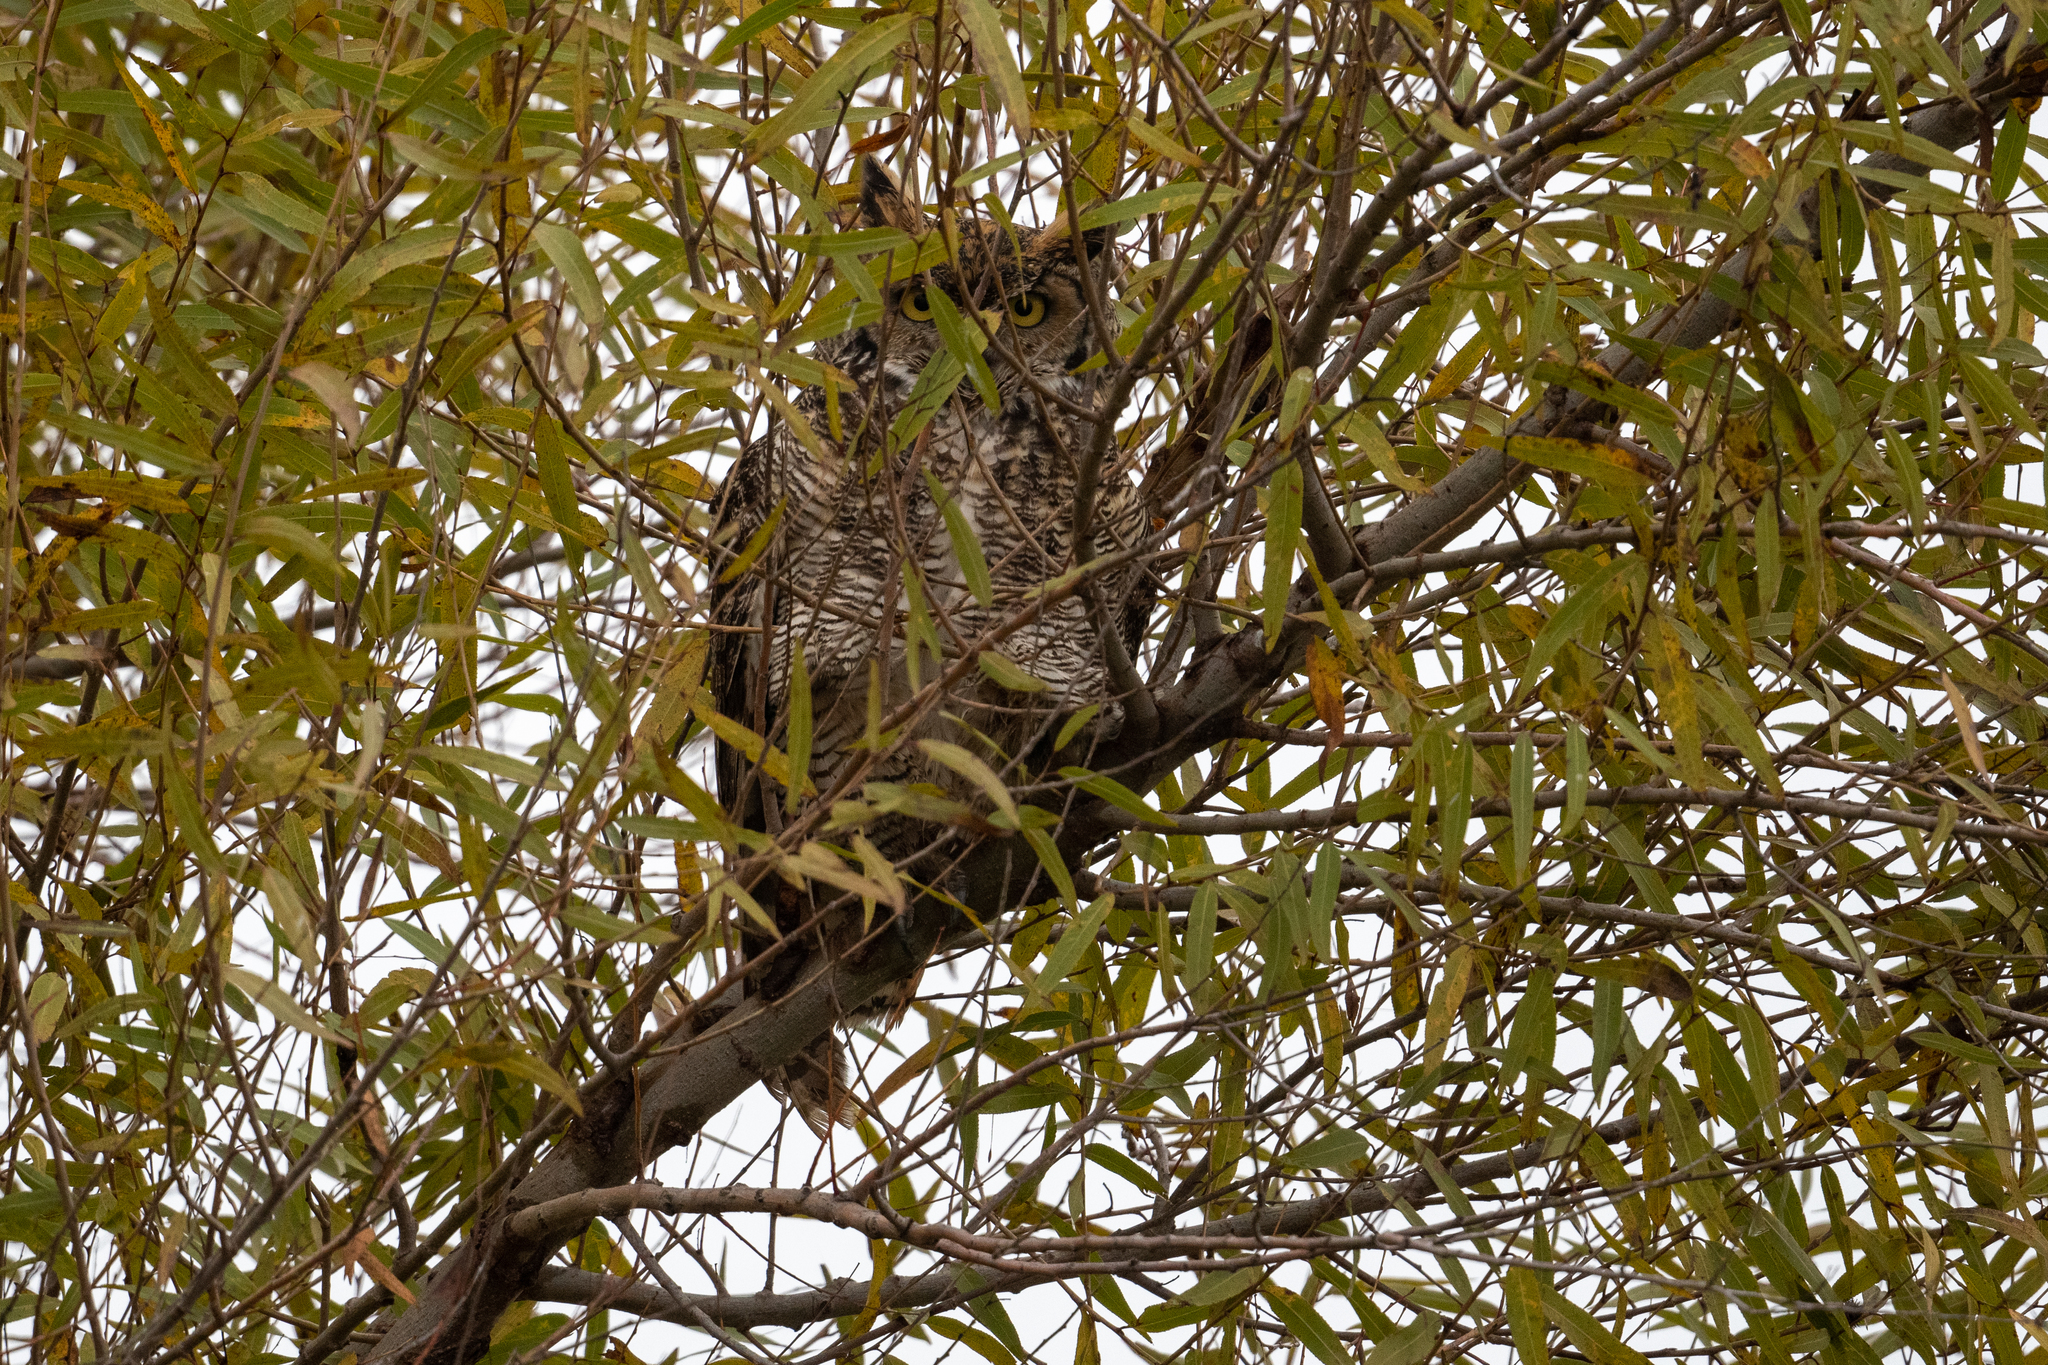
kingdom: Animalia
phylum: Chordata
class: Aves
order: Strigiformes
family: Strigidae
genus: Bubo
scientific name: Bubo virginianus
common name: Great horned owl
